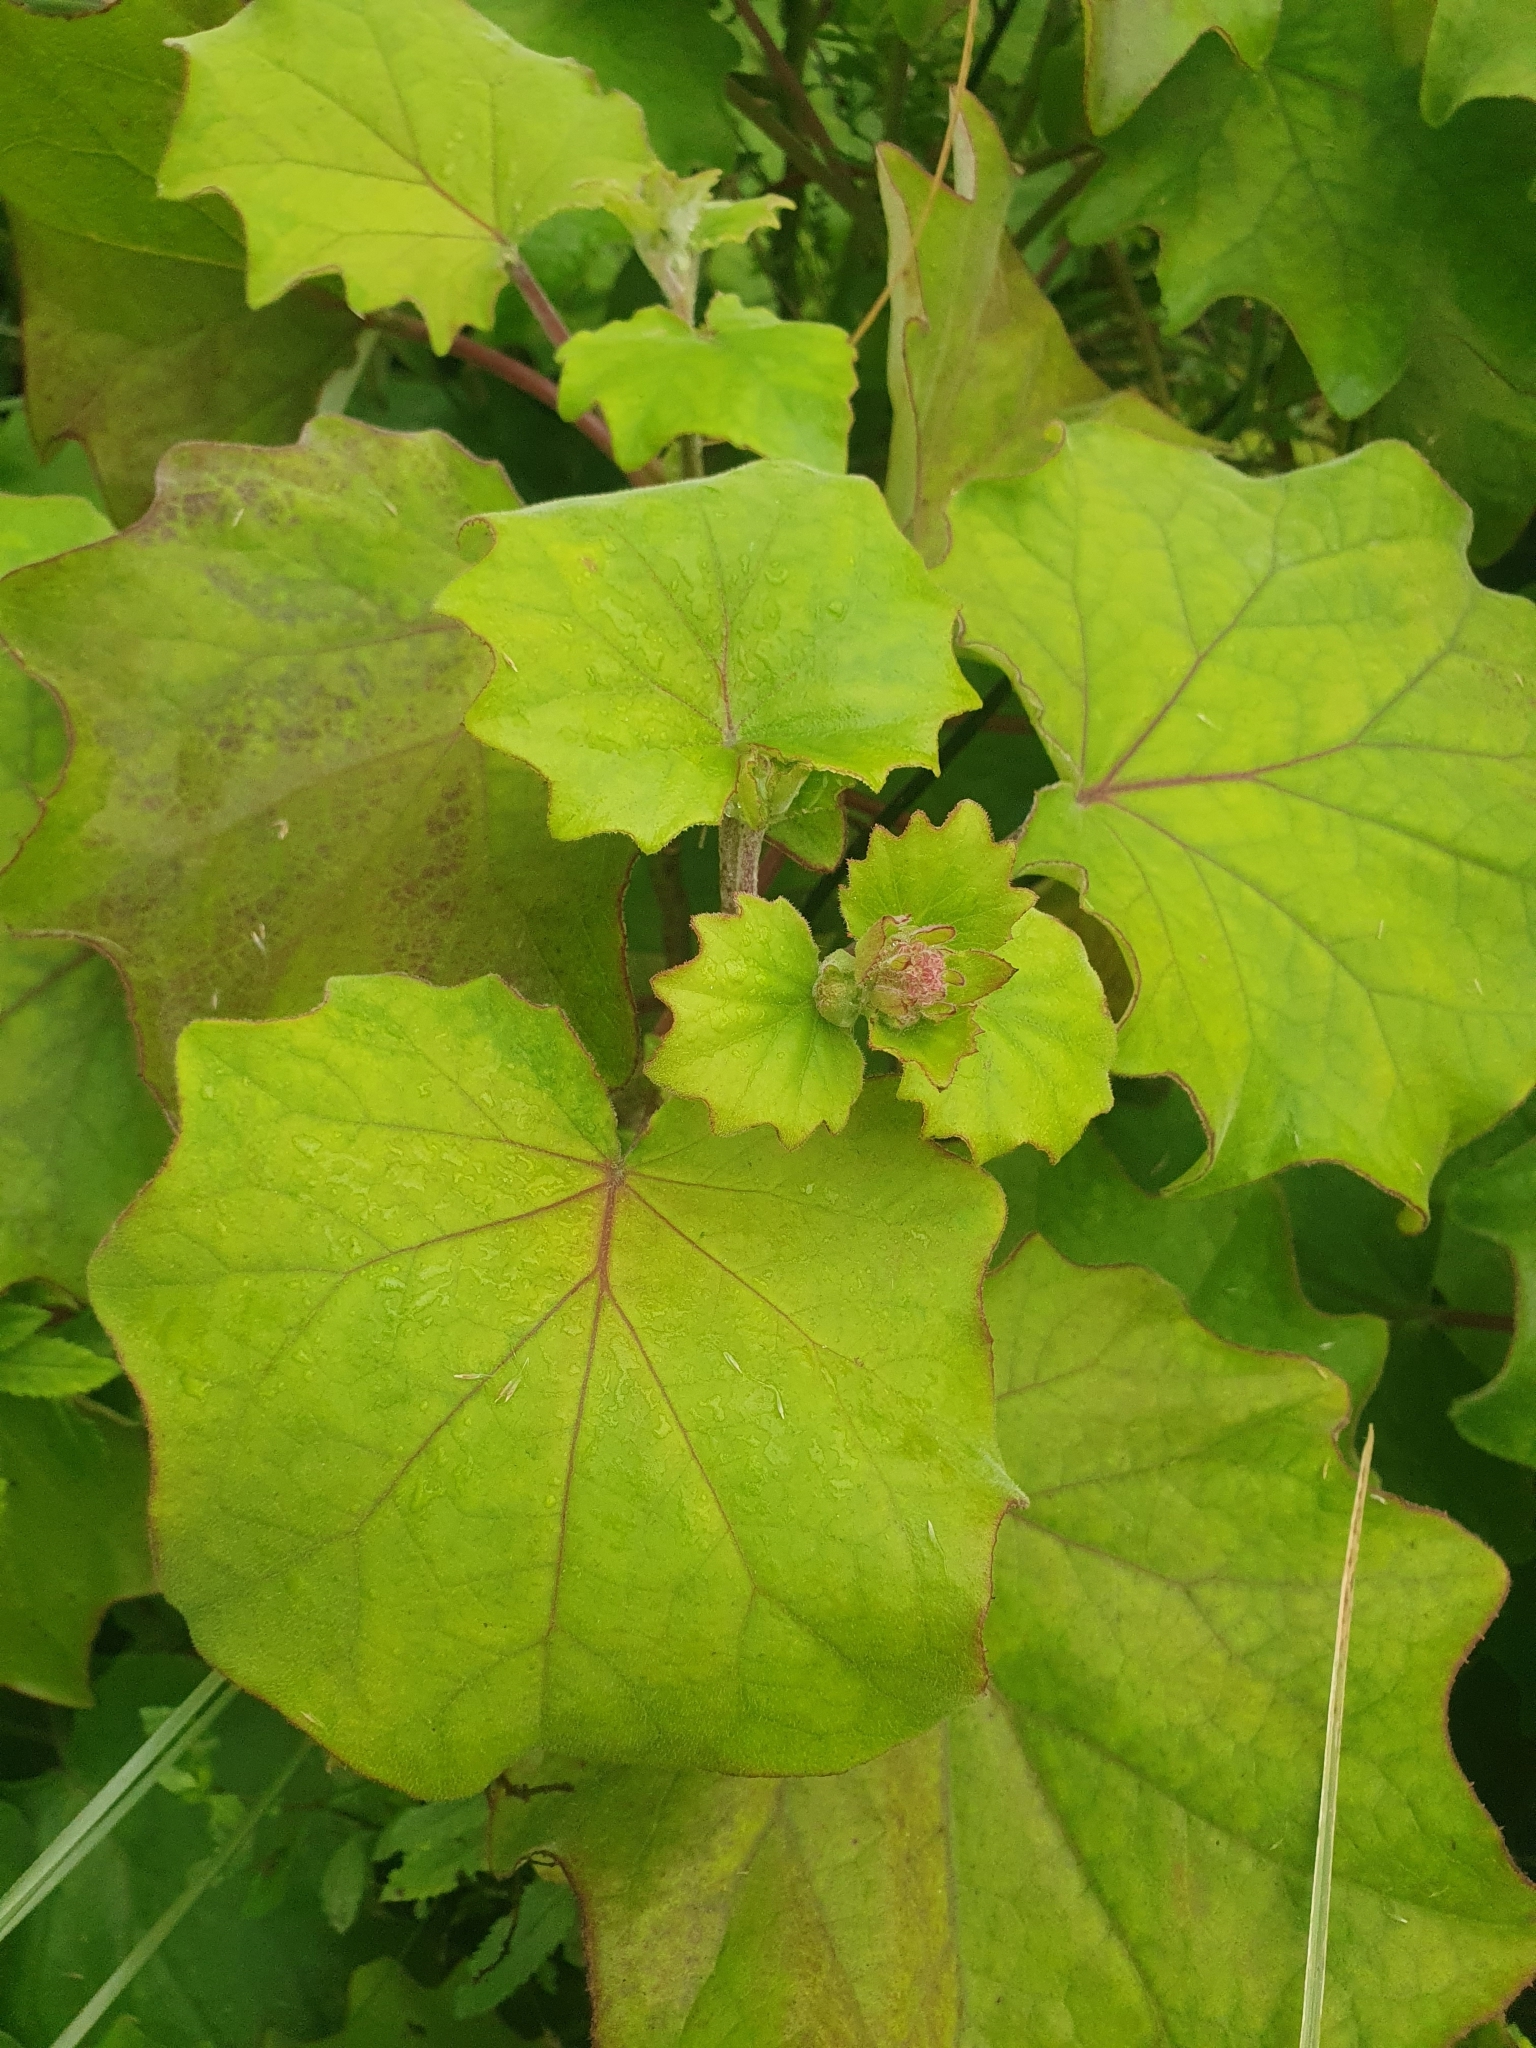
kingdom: Plantae
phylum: Tracheophyta
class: Magnoliopsida
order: Asterales
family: Asteraceae
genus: Roldana
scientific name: Roldana petasitis
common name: California-geranium
